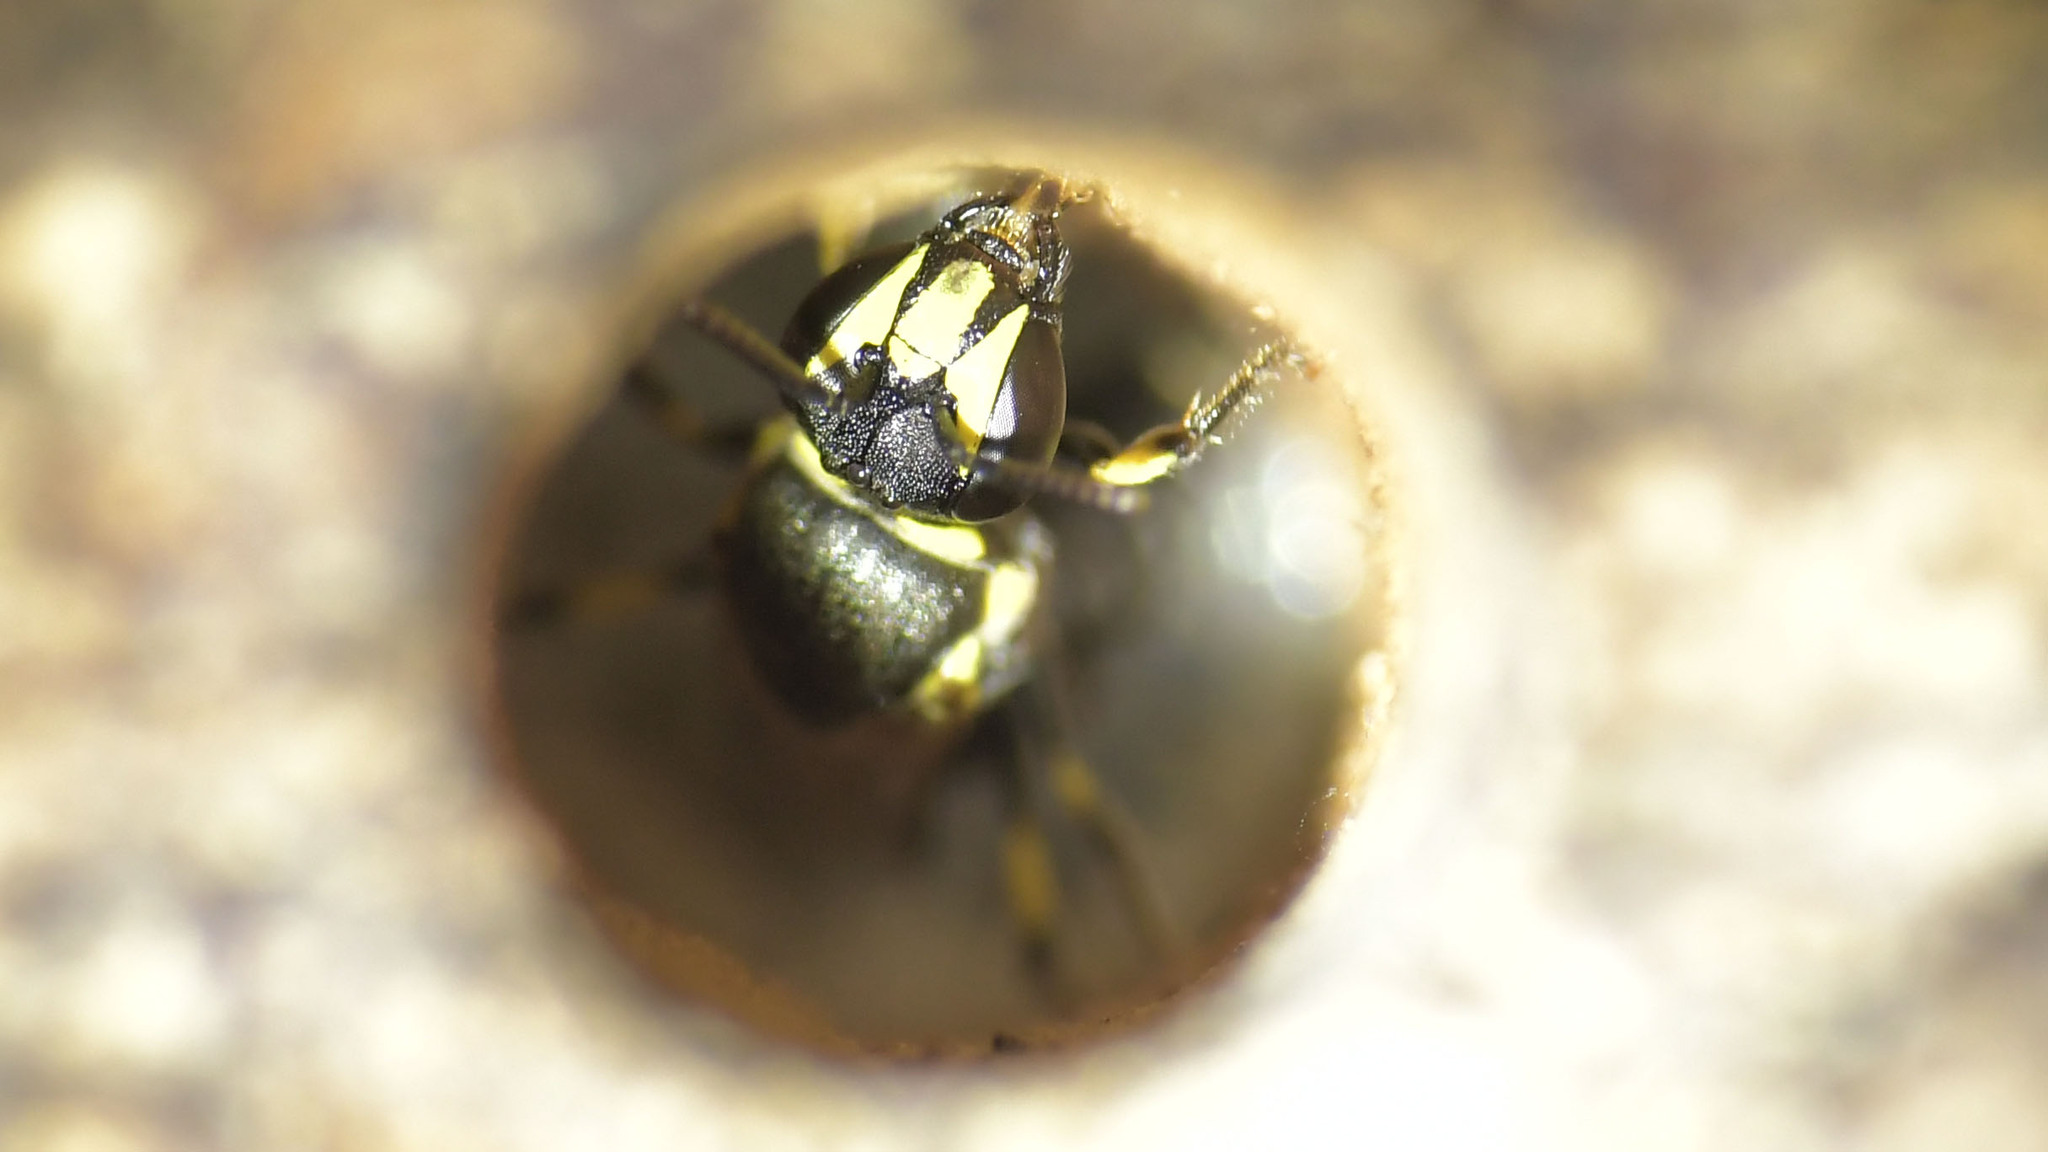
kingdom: Animalia
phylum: Arthropoda
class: Insecta
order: Hymenoptera
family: Colletidae
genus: Hylaeus
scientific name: Hylaeus mediolucens
